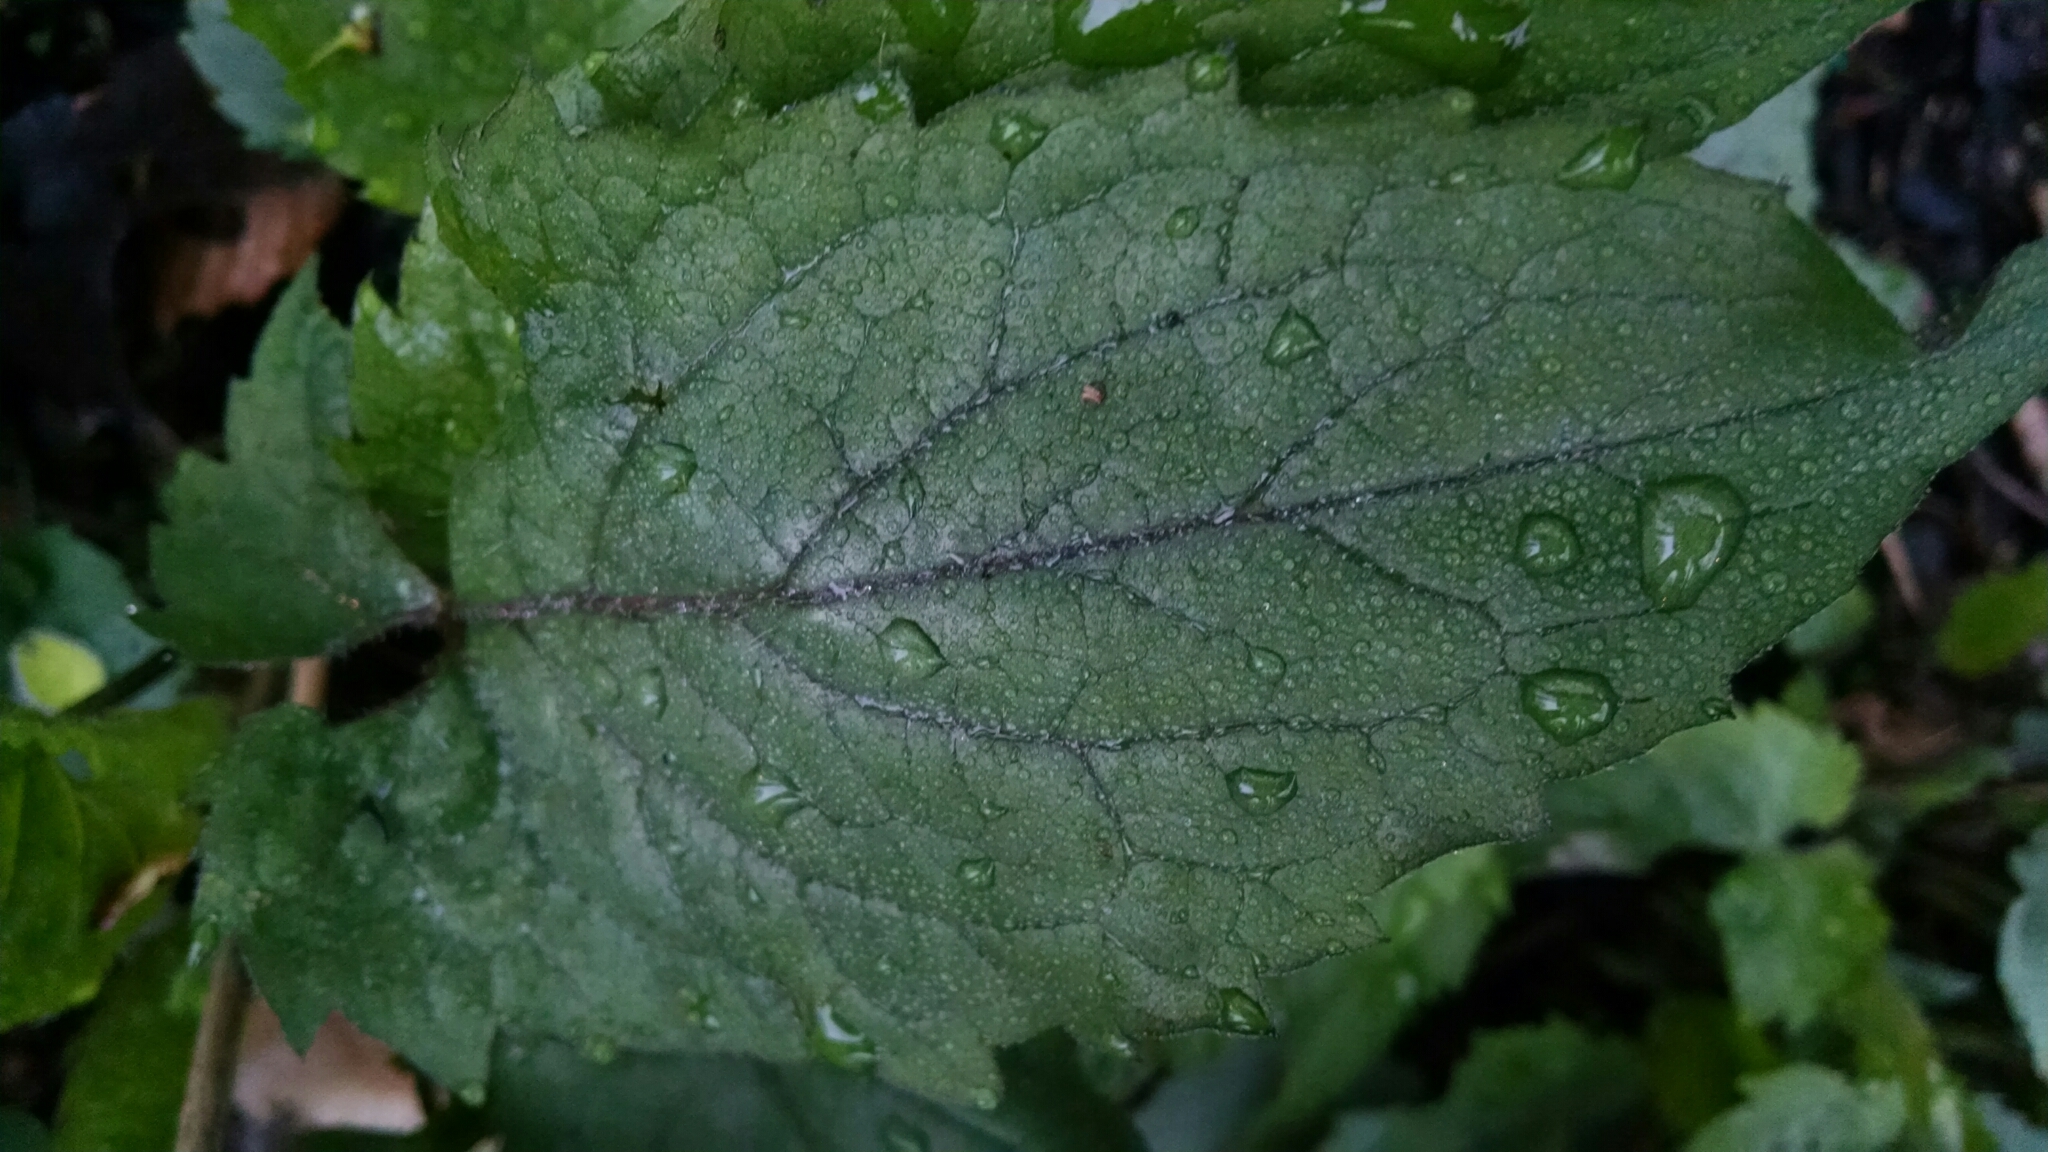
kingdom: Plantae
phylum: Tracheophyta
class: Magnoliopsida
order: Asterales
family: Asteraceae
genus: Eurybia
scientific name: Eurybia divaricata
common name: White wood aster
